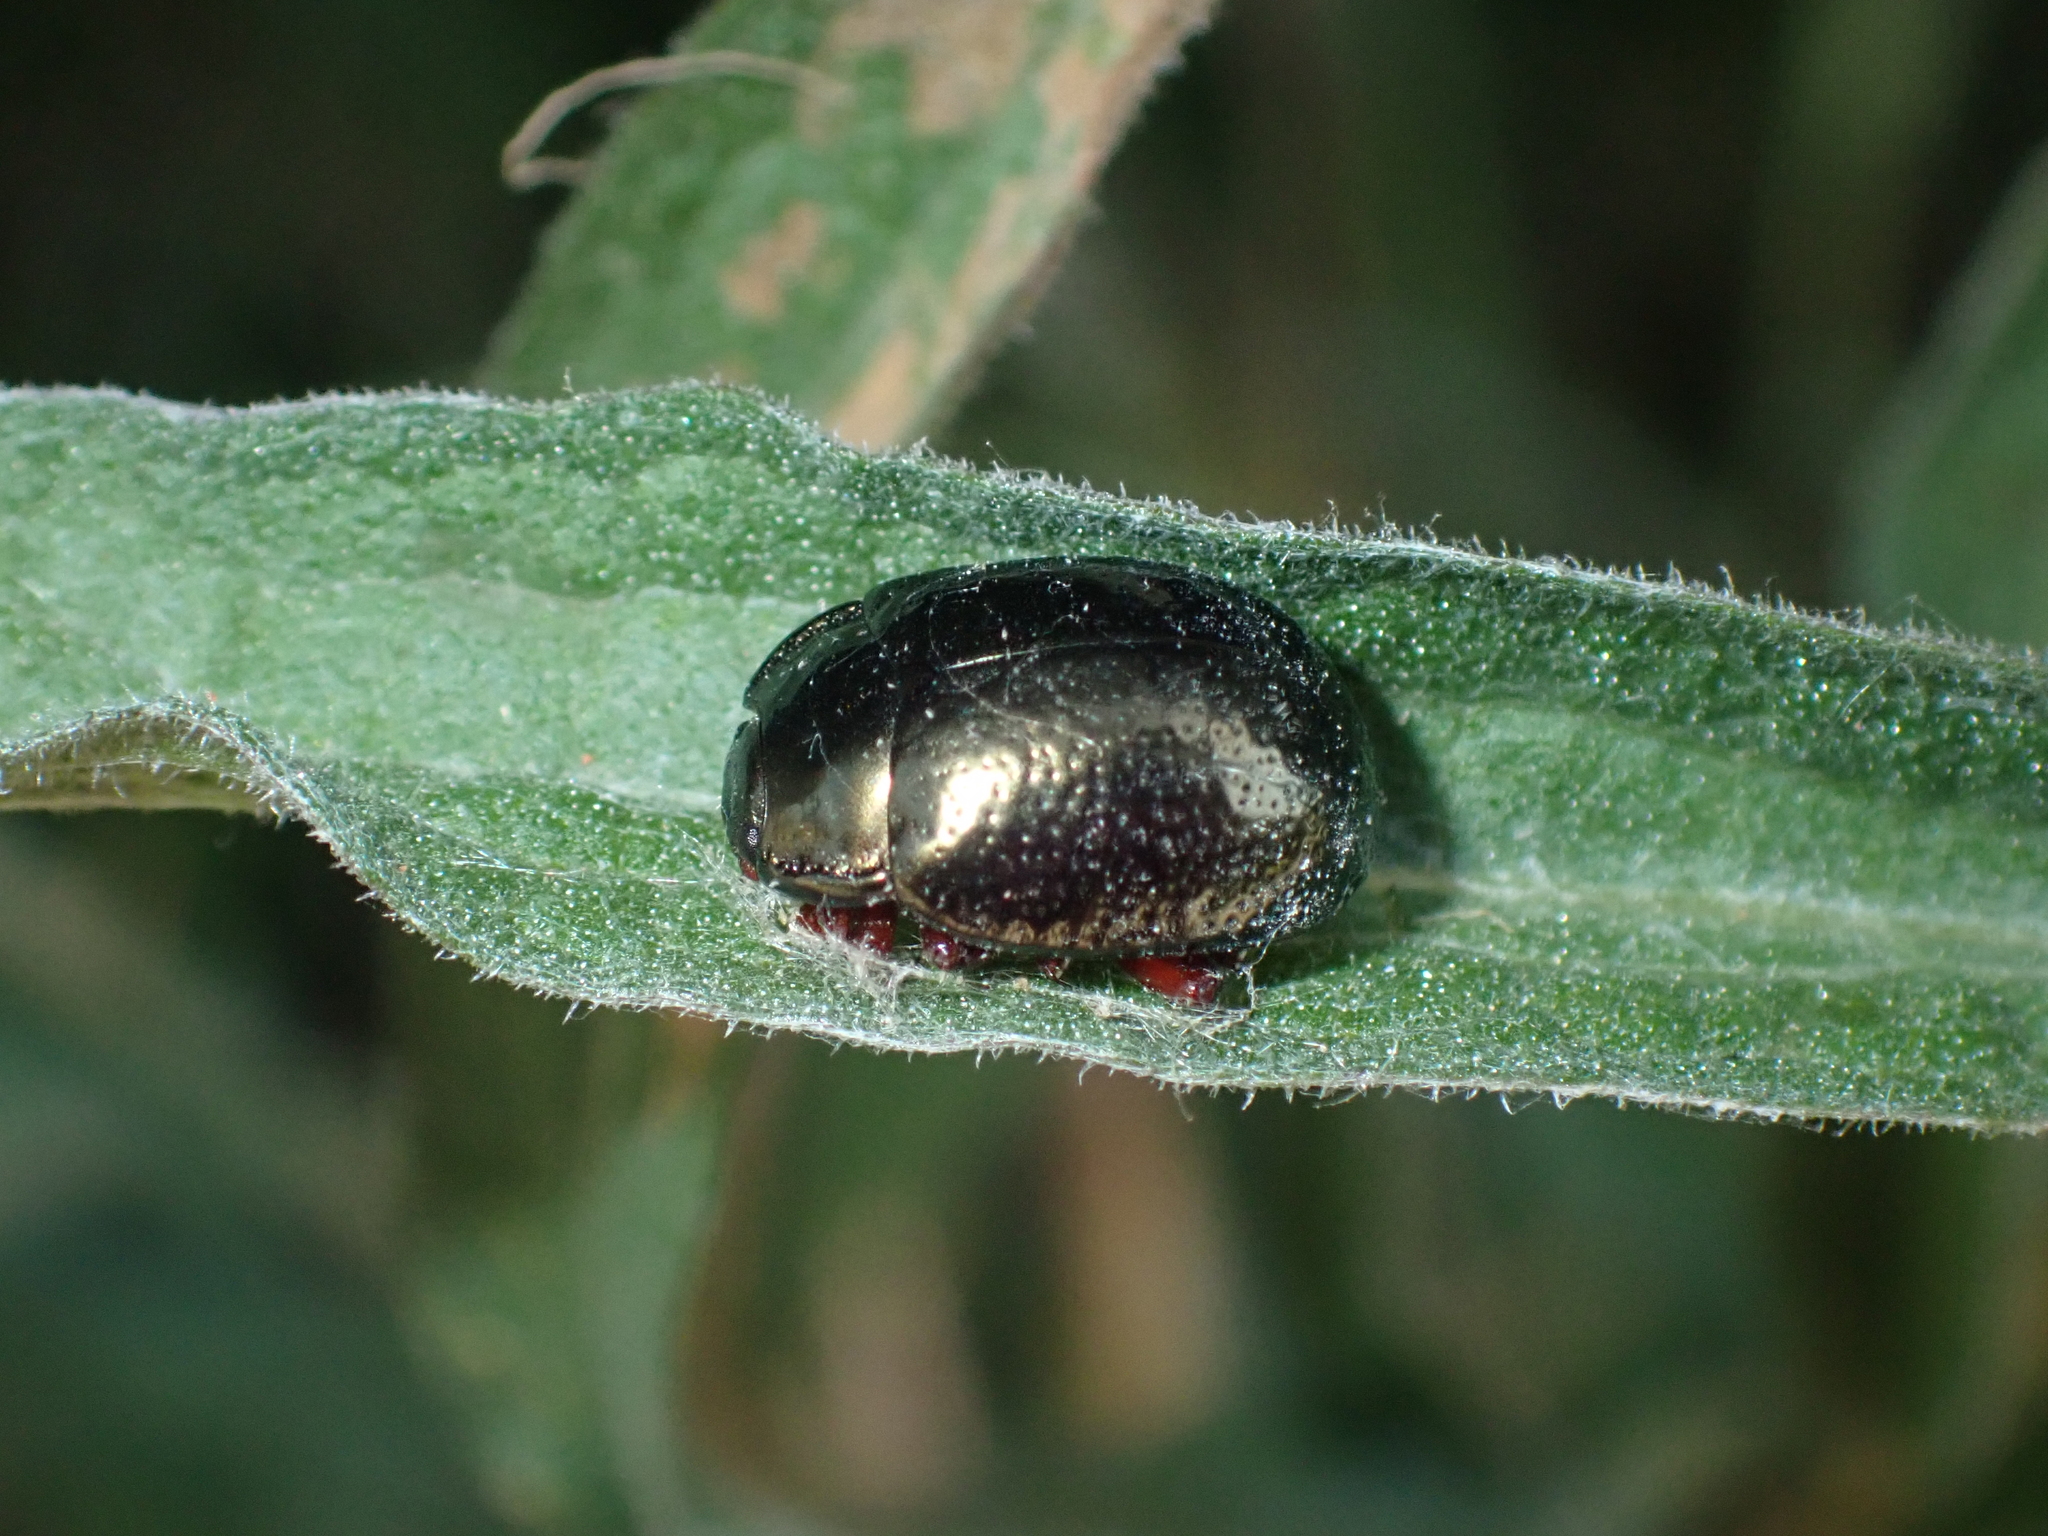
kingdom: Animalia
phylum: Arthropoda
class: Insecta
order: Coleoptera
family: Chrysomelidae
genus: Chrysolina
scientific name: Chrysolina bankii
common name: Leaf beetle
